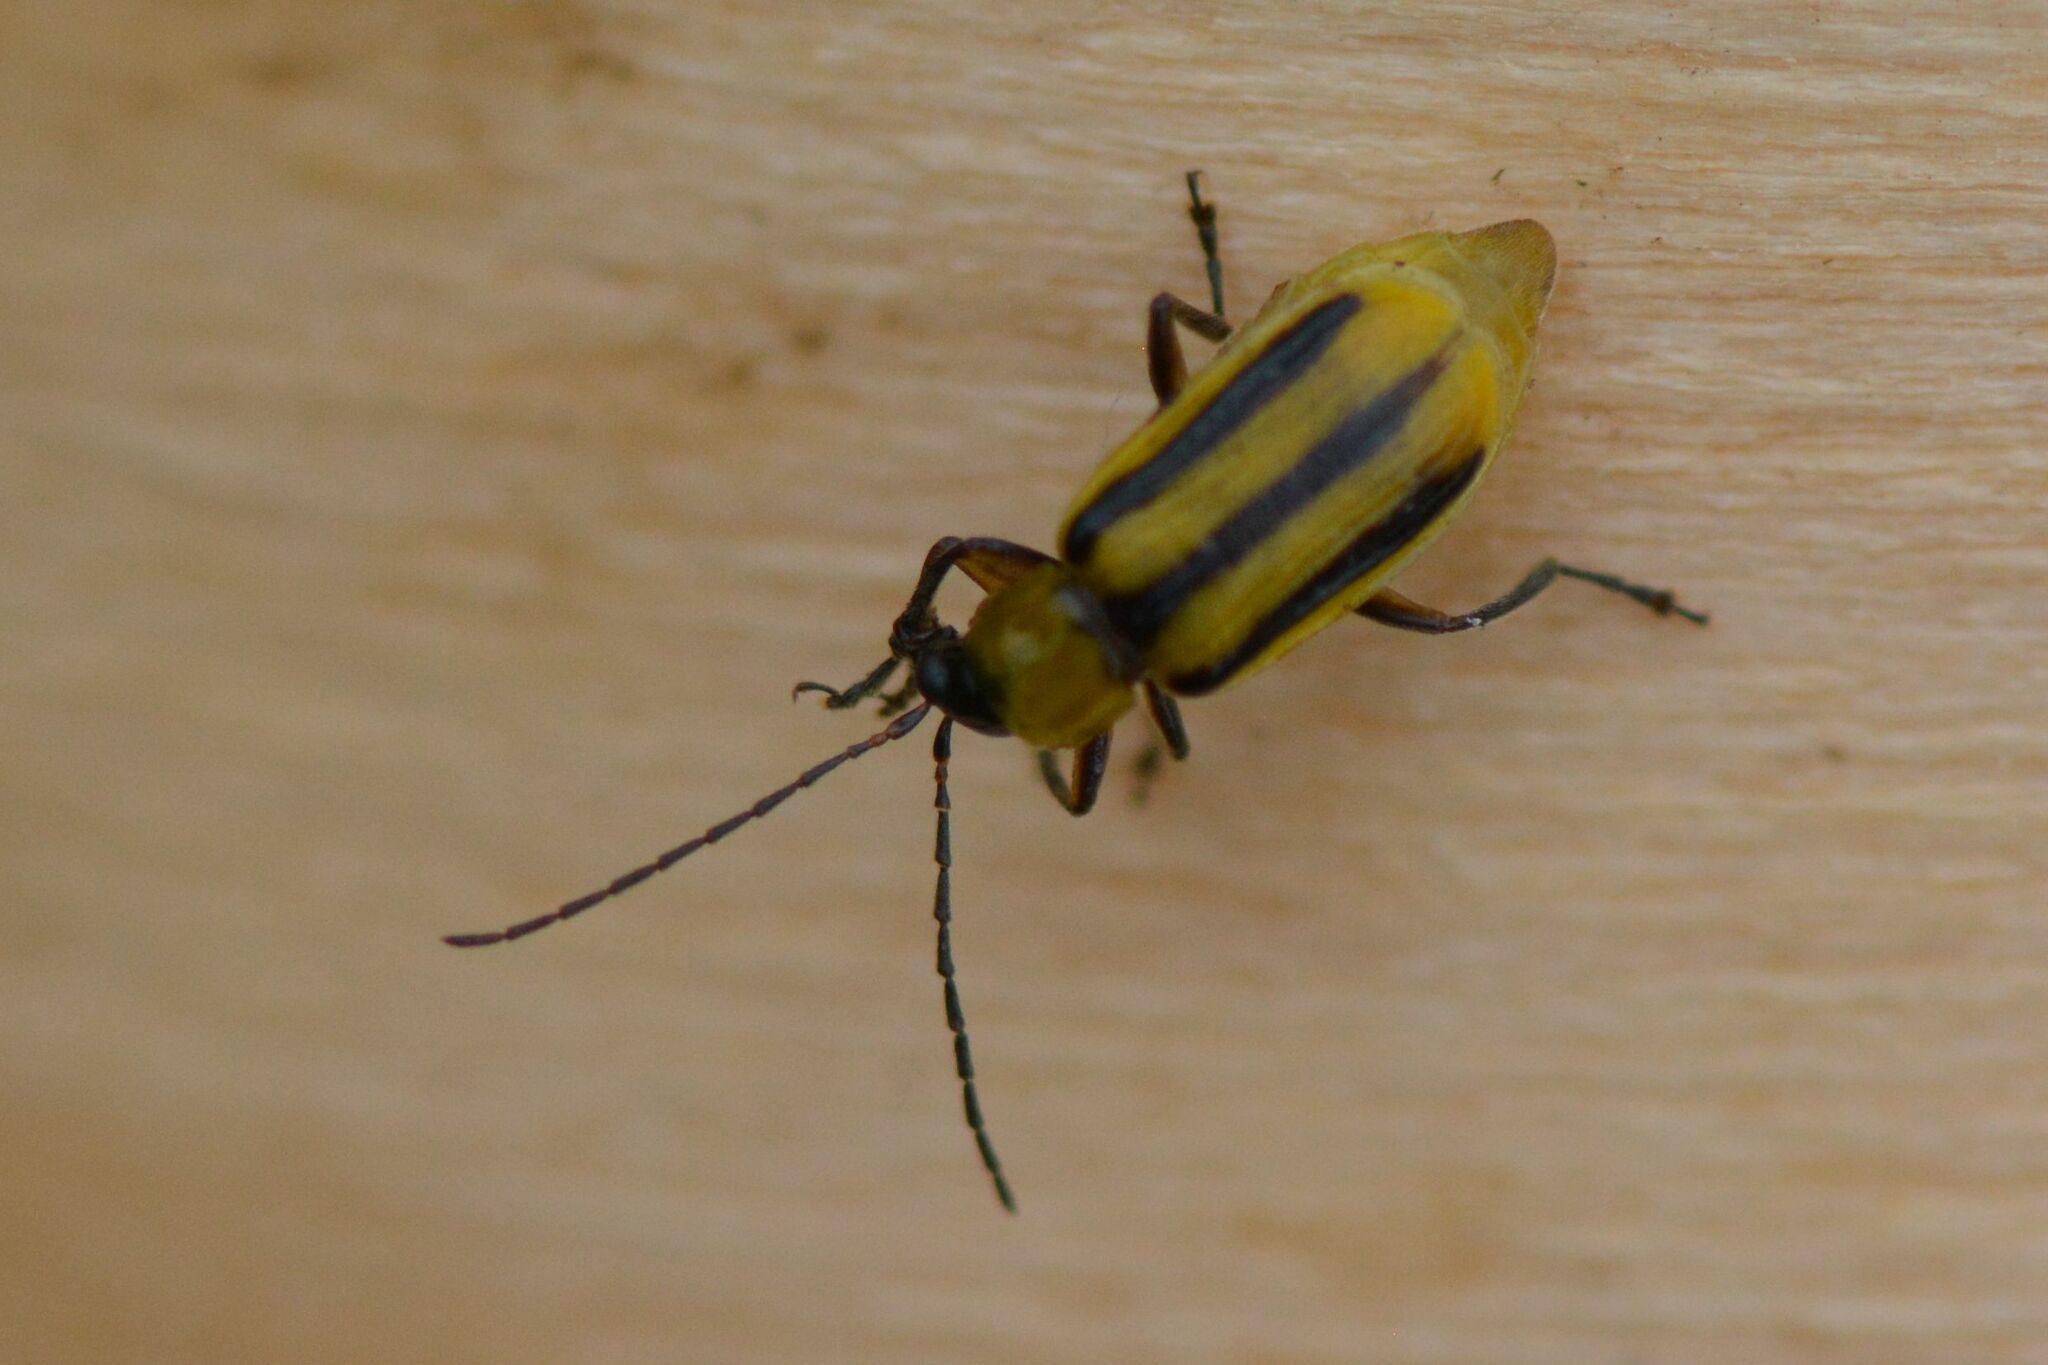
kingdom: Animalia
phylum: Arthropoda
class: Insecta
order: Coleoptera
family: Chrysomelidae
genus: Diabrotica
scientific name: Diabrotica virgifera
